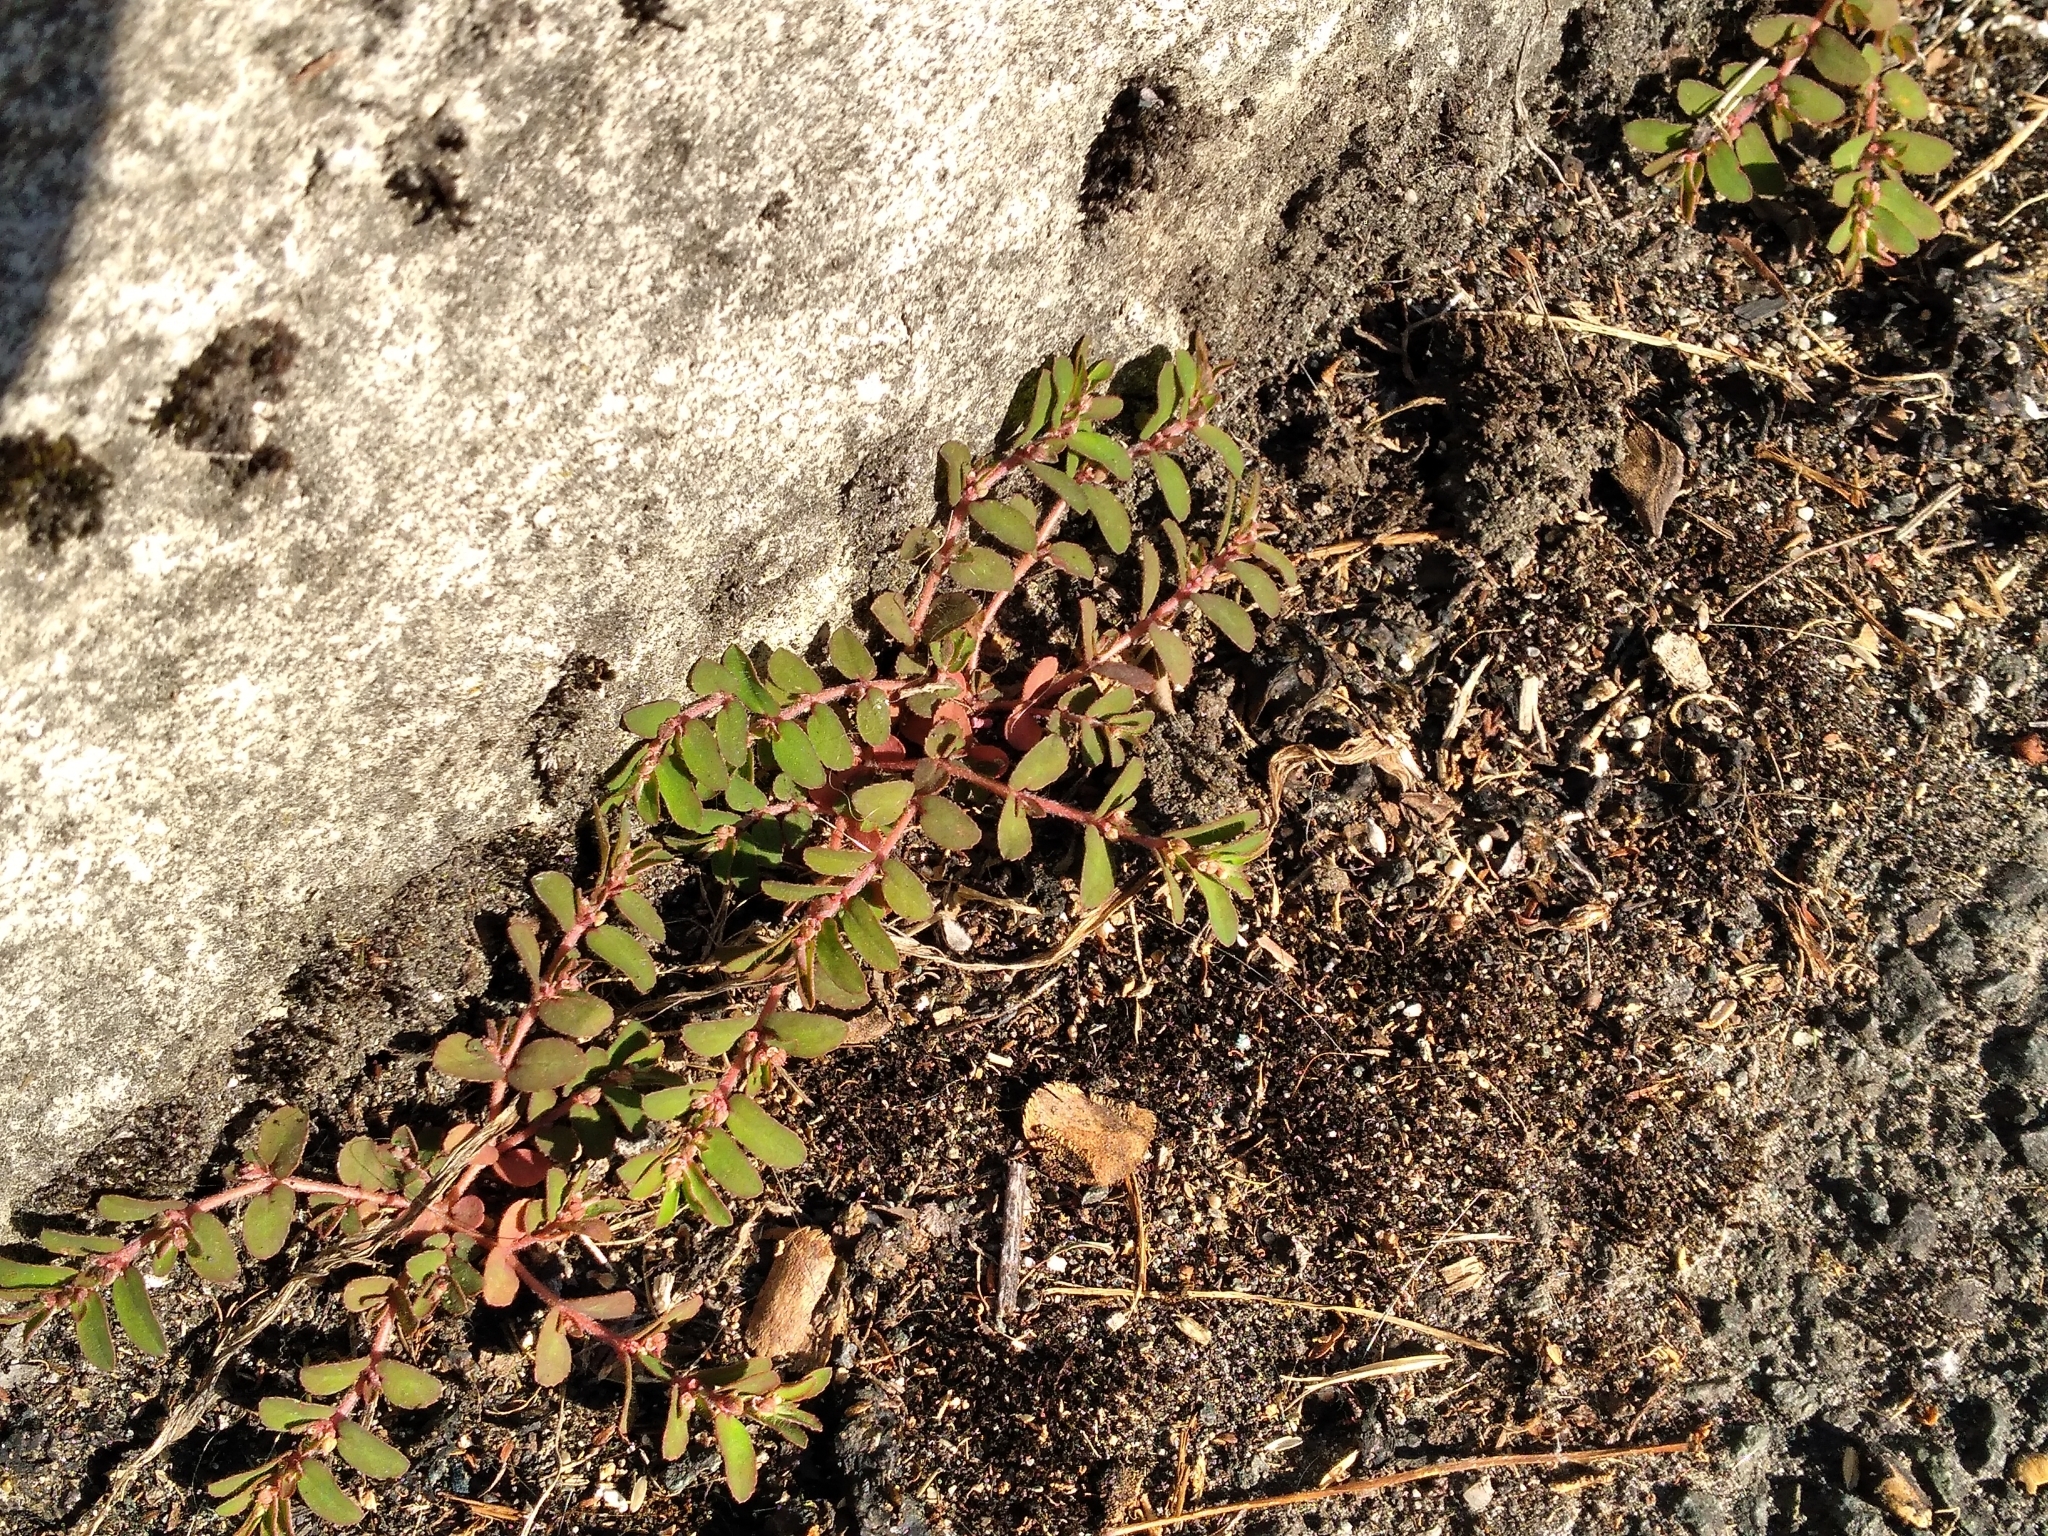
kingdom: Plantae
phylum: Tracheophyta
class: Magnoliopsida
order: Malpighiales
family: Euphorbiaceae
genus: Euphorbia
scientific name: Euphorbia maculata
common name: Spotted spurge
